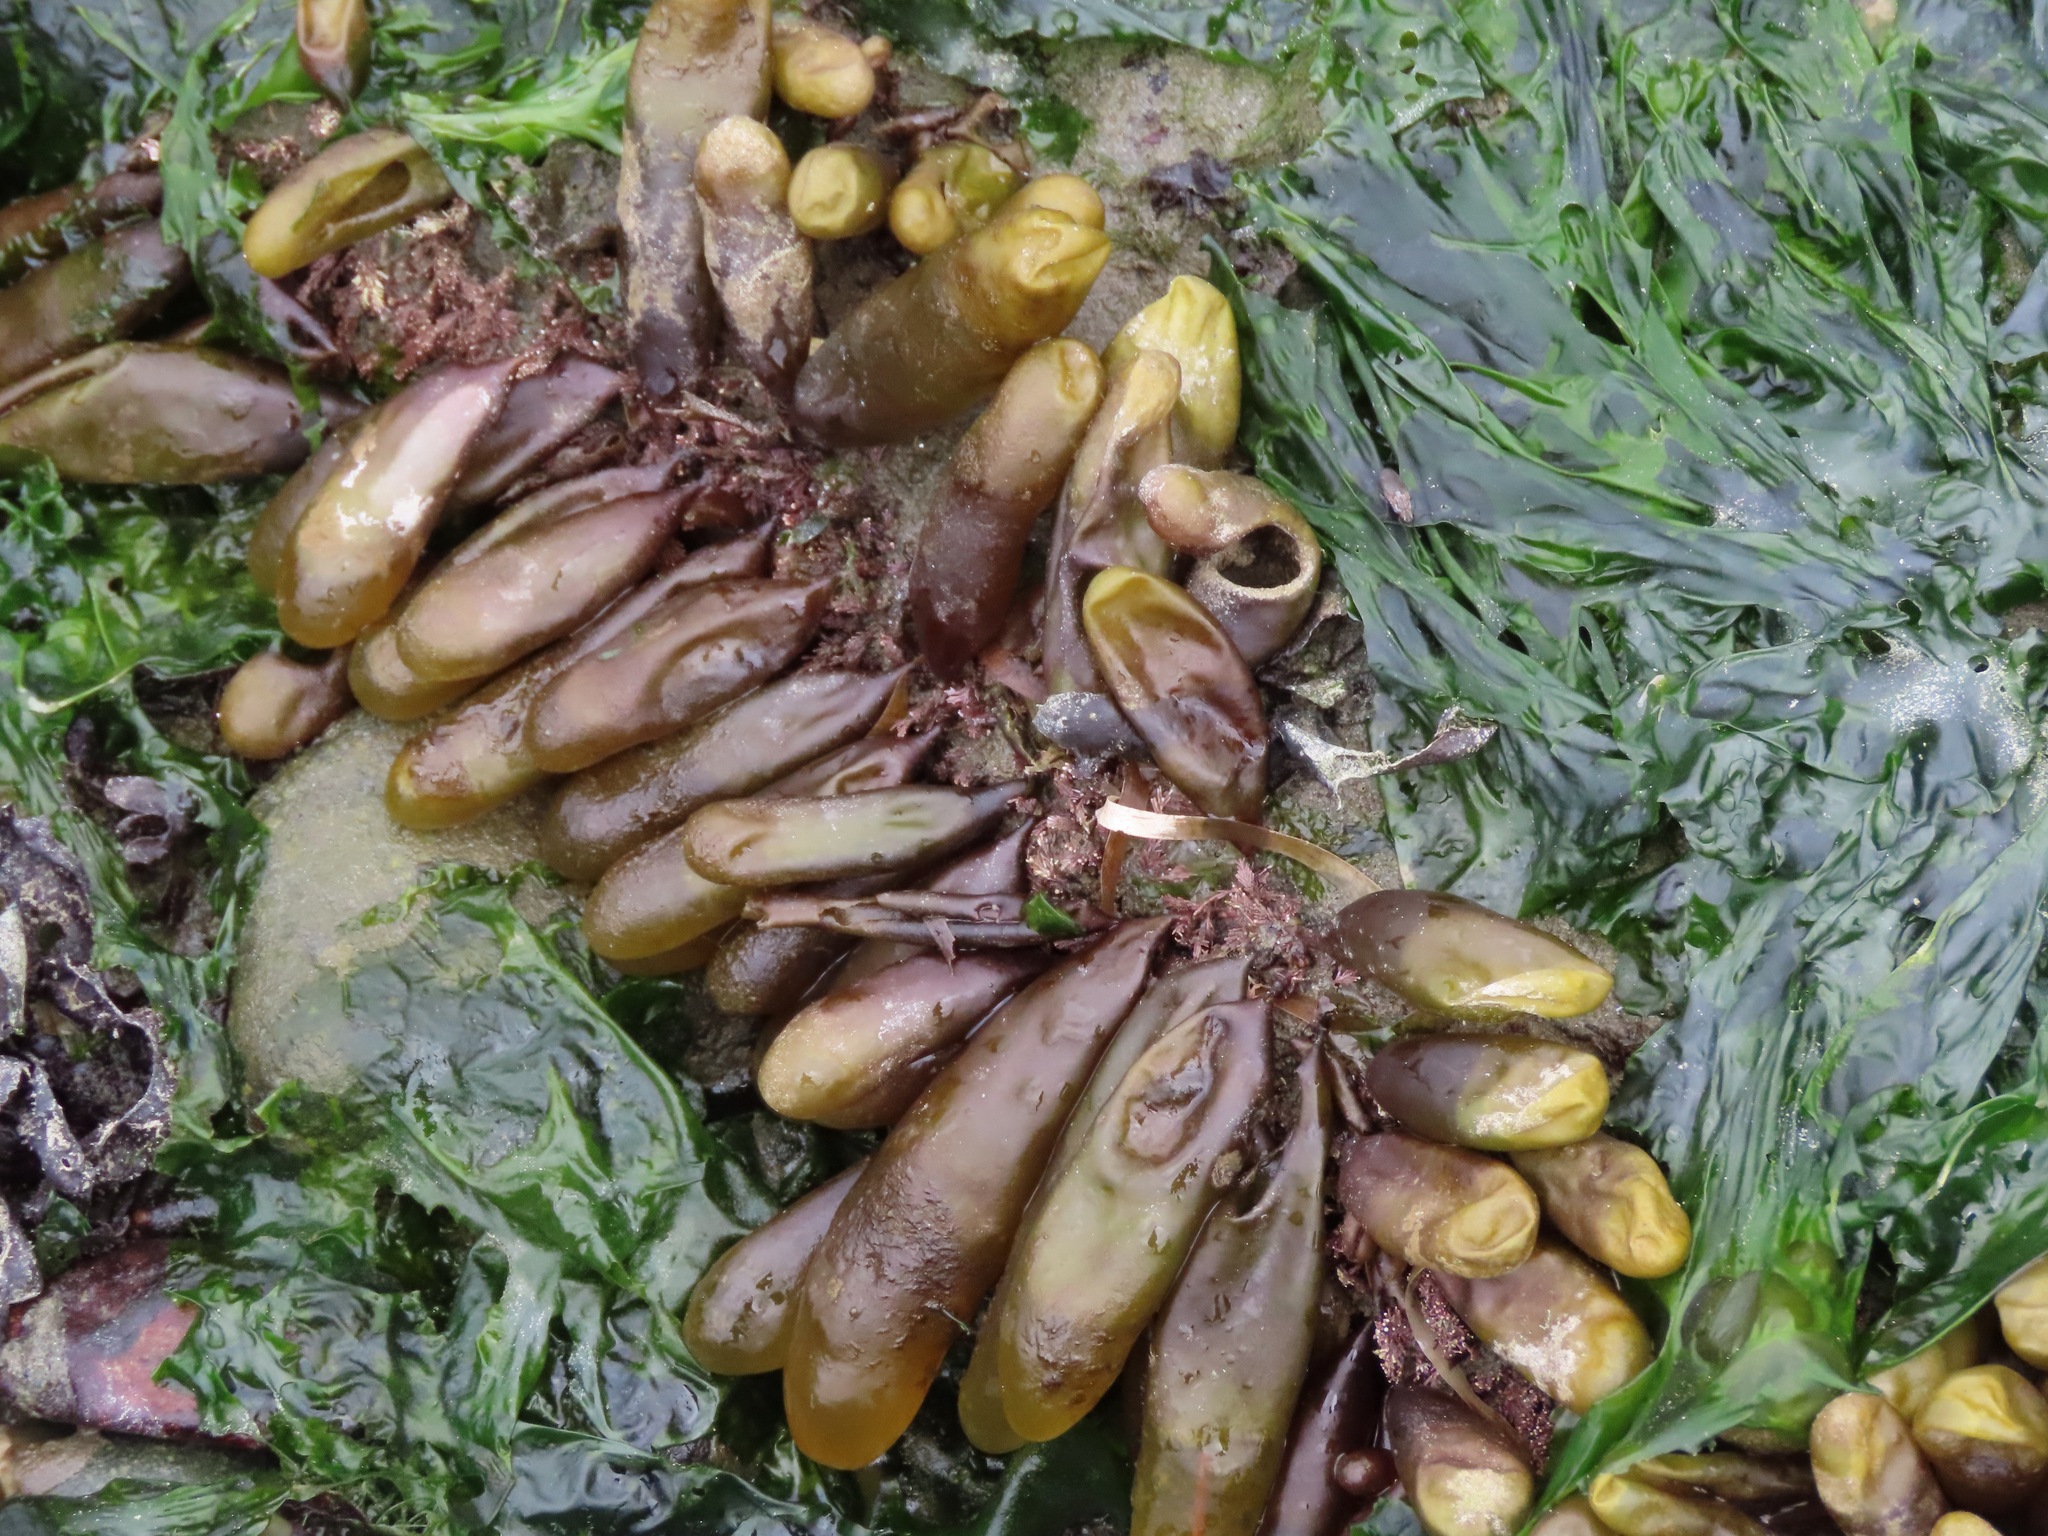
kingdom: Plantae
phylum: Rhodophyta
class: Florideophyceae
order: Palmariales
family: Palmariaceae
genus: Halosaccion
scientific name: Halosaccion glandiforme
